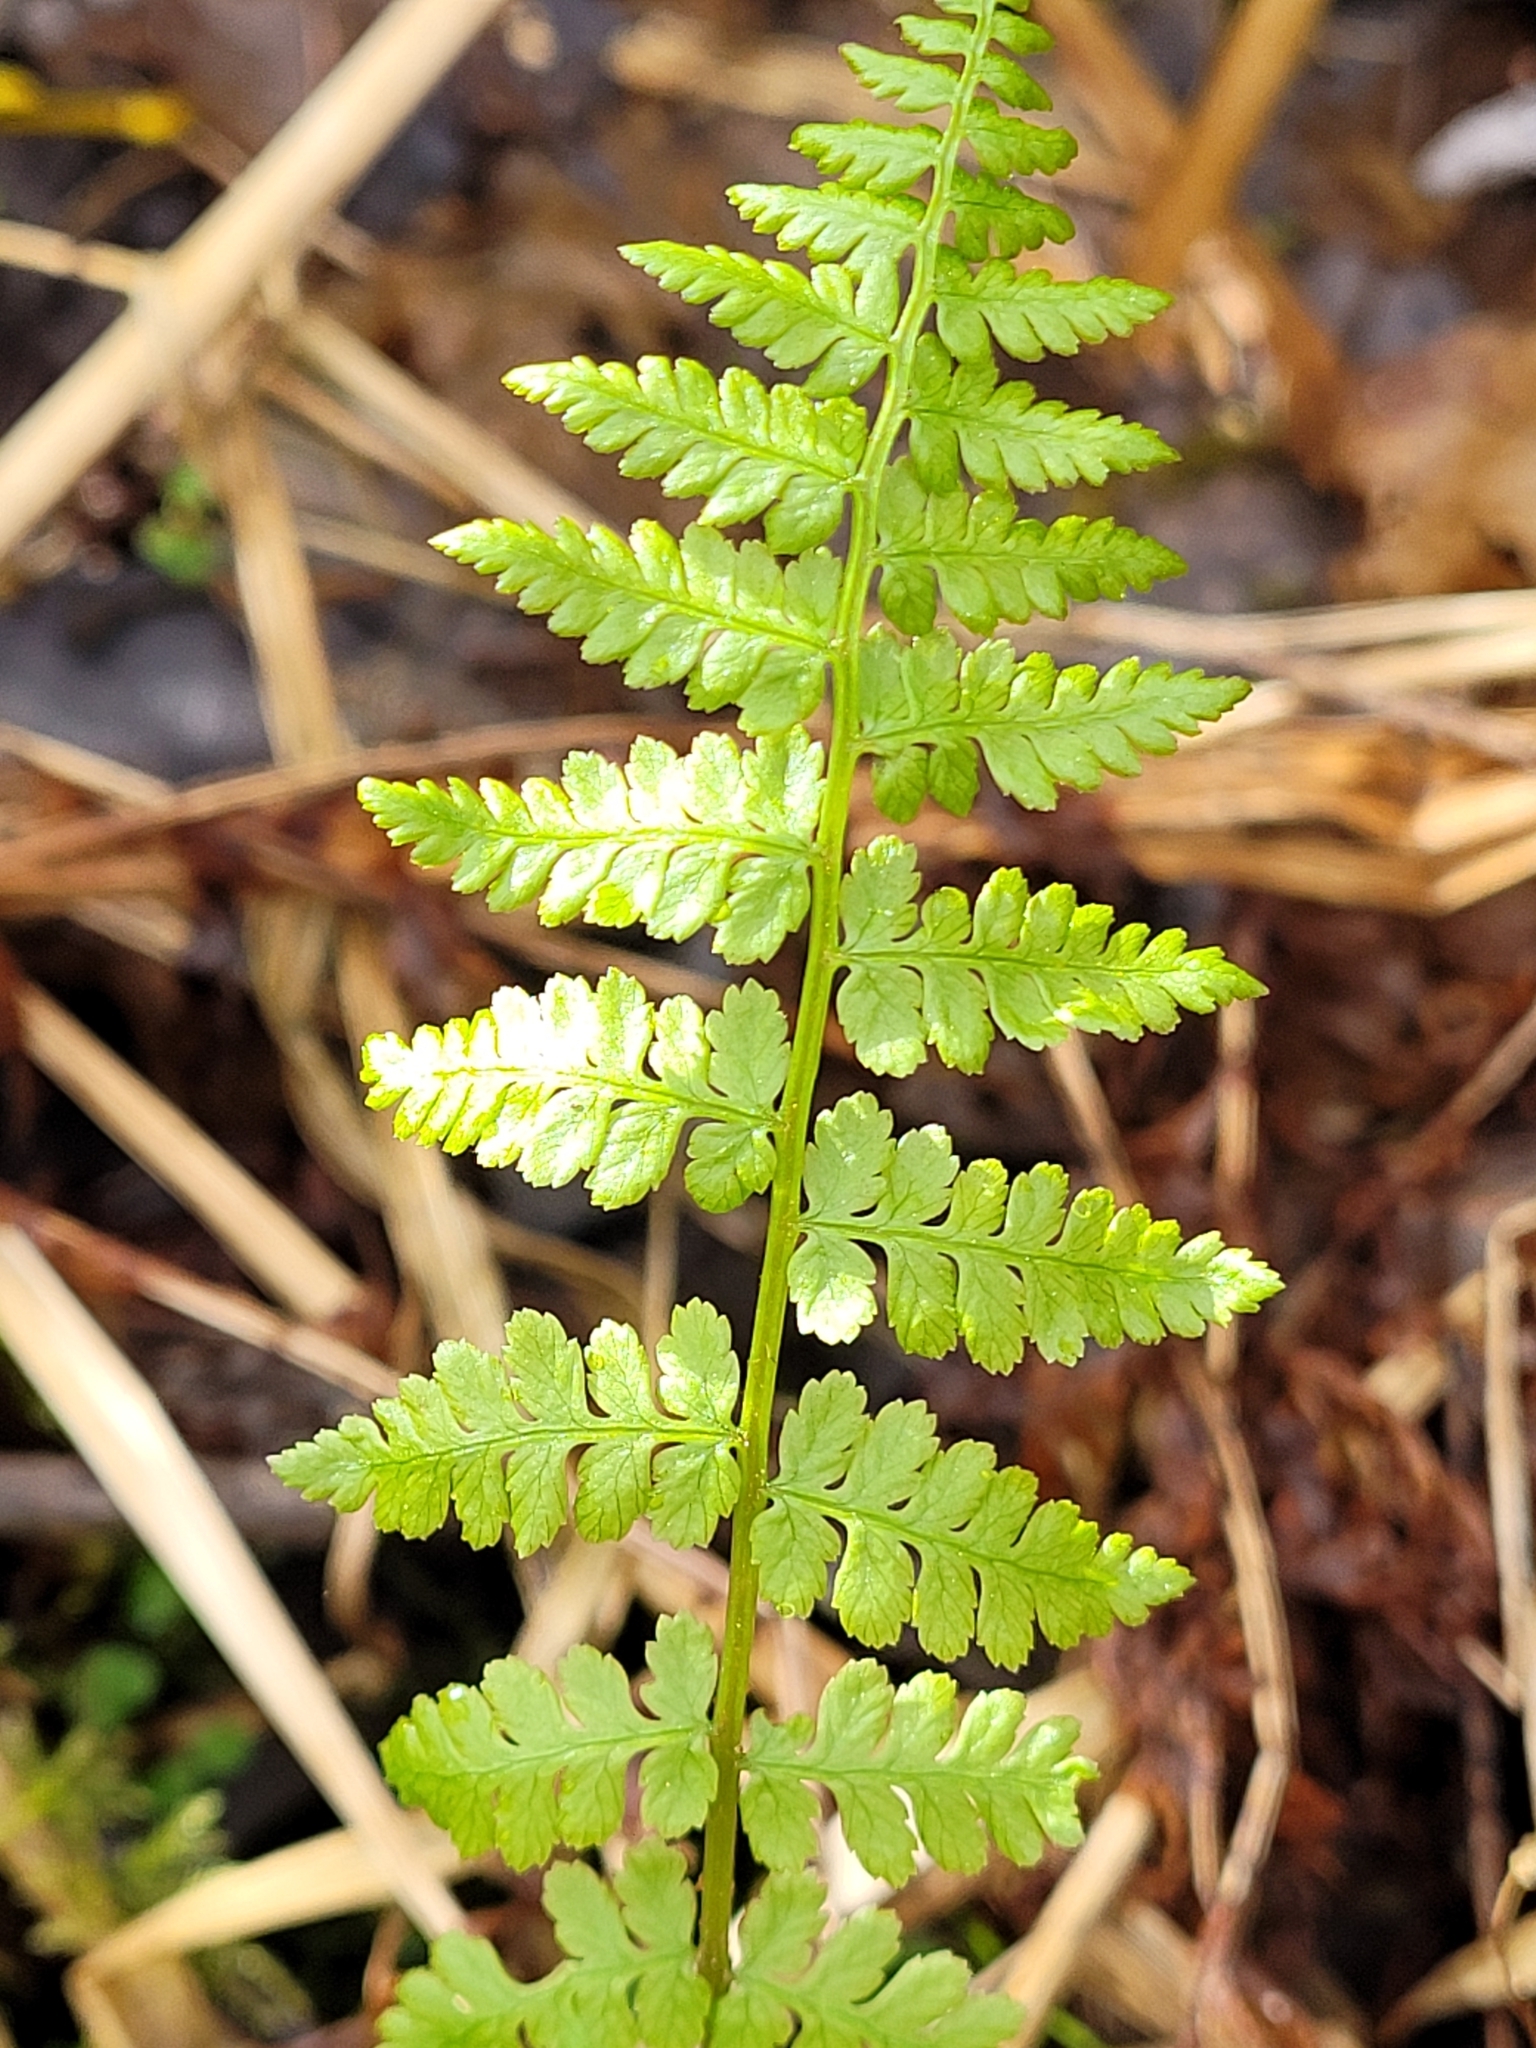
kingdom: Plantae
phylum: Tracheophyta
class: Polypodiopsida
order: Polypodiales
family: Athyriaceae
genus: Athyrium
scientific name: Athyrium filix-femina
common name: Lady fern
